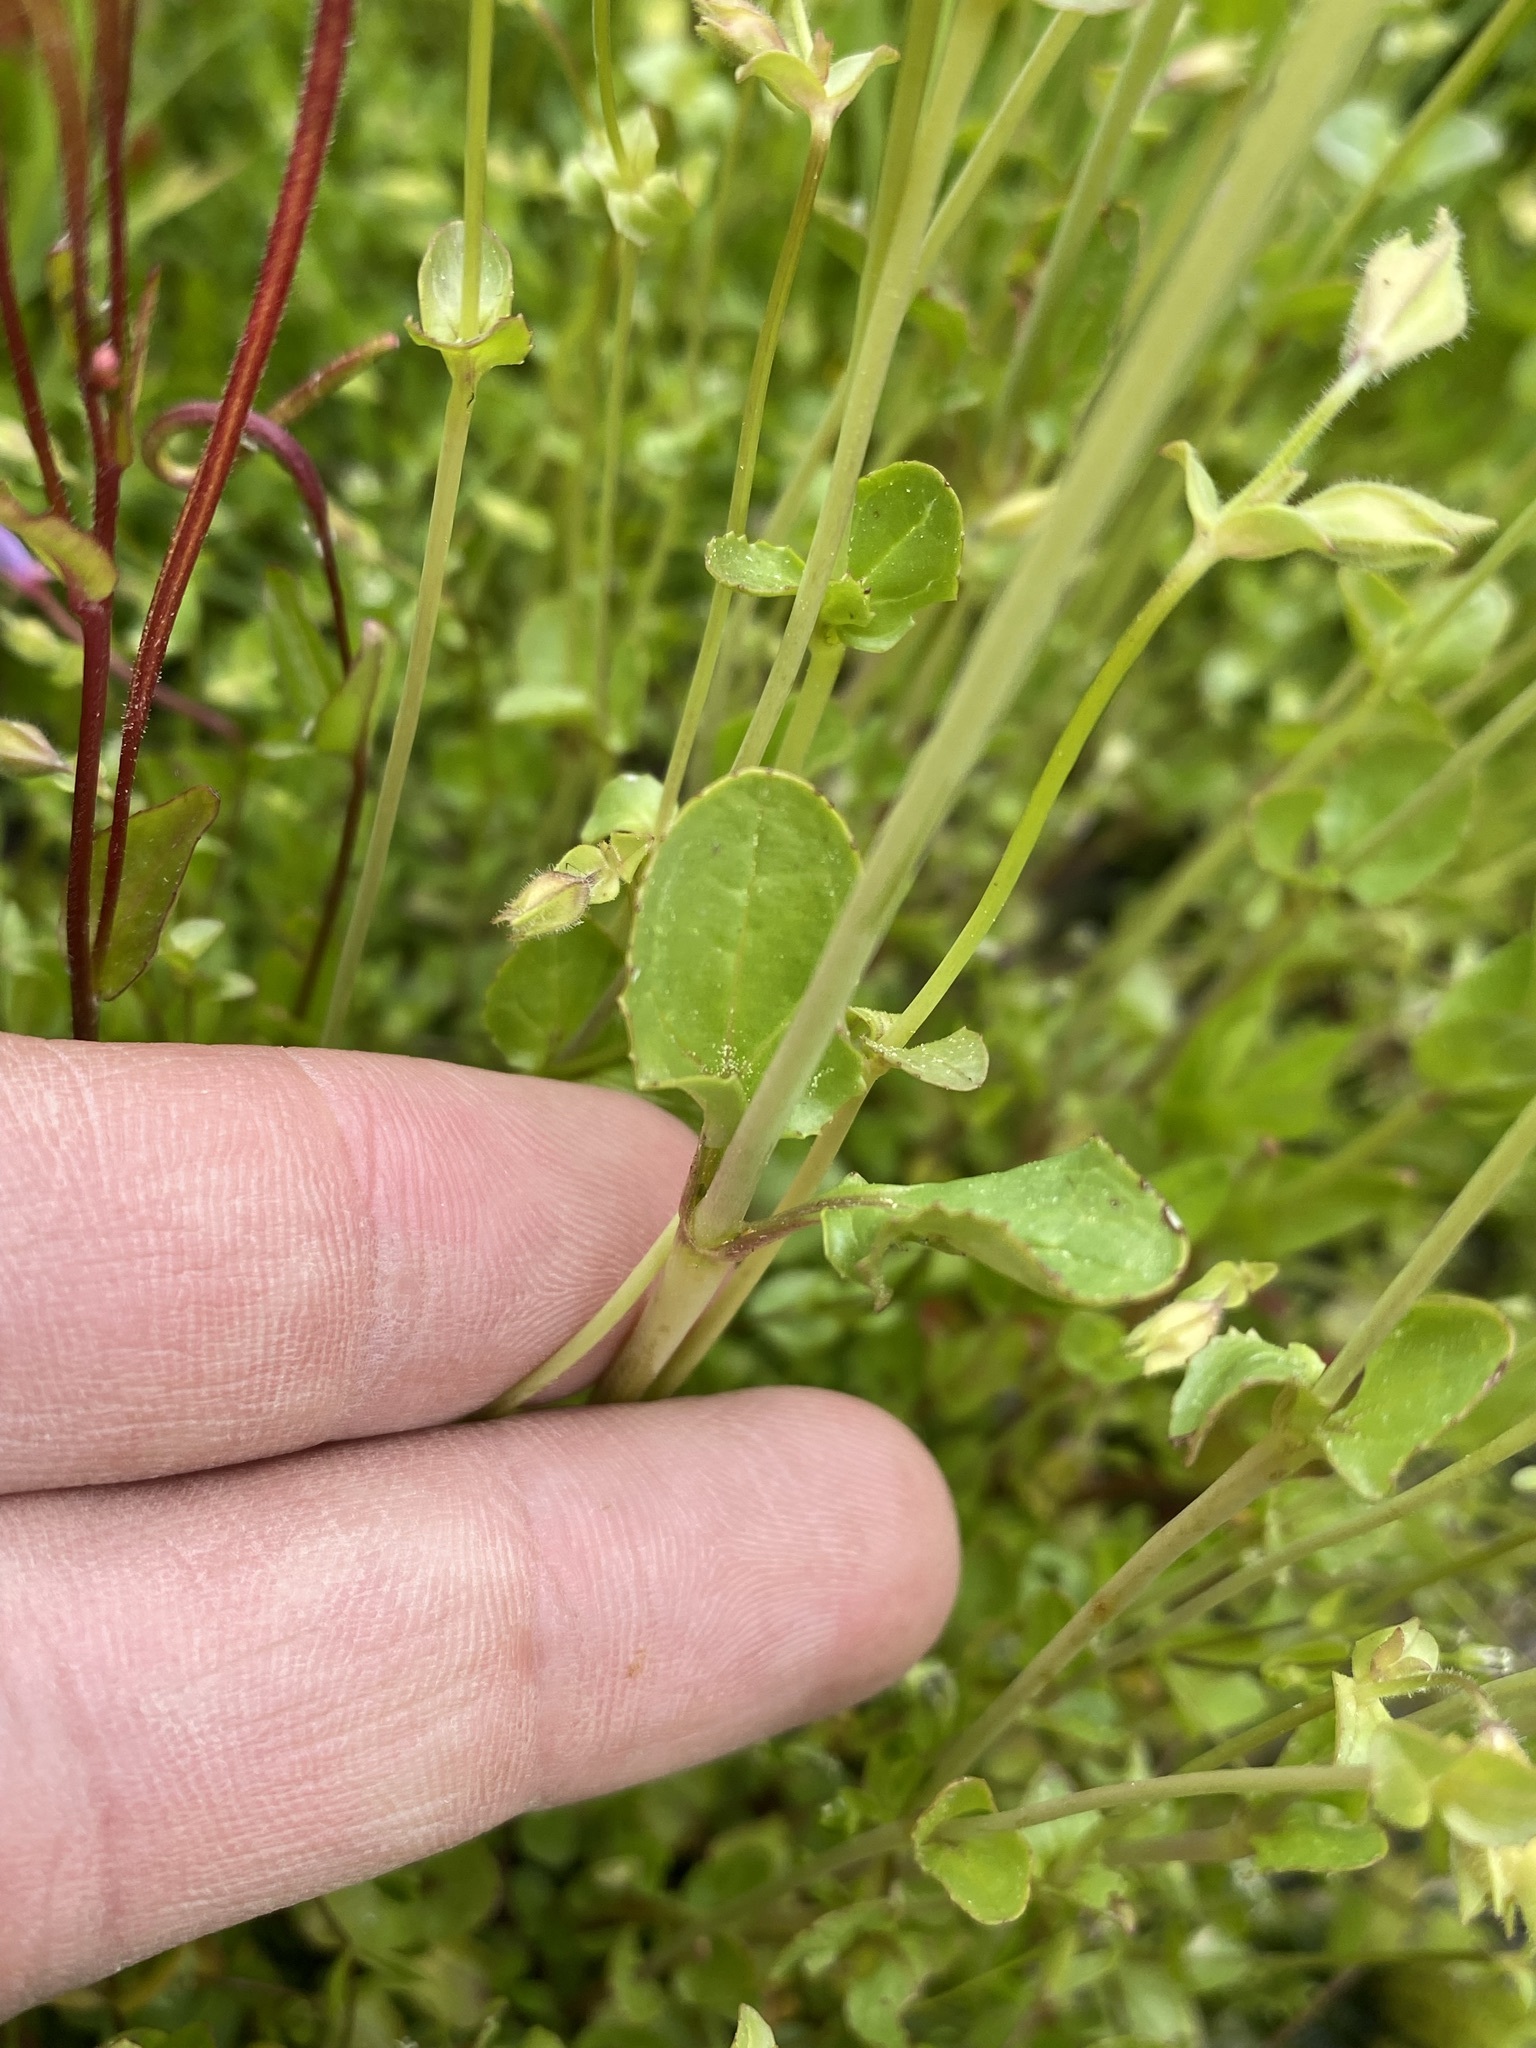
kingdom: Plantae
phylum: Tracheophyta
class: Magnoliopsida
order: Lamiales
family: Phrymaceae
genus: Erythranthe
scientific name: Erythranthe guttata
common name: Monkeyflower
